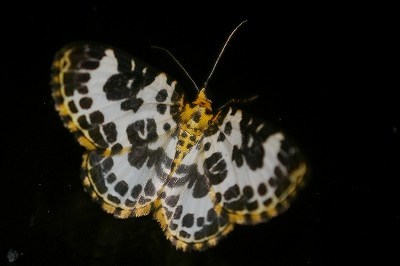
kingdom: Animalia
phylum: Arthropoda
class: Insecta
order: Lepidoptera
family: Geometridae
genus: Gandaritis
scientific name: Gandaritis
